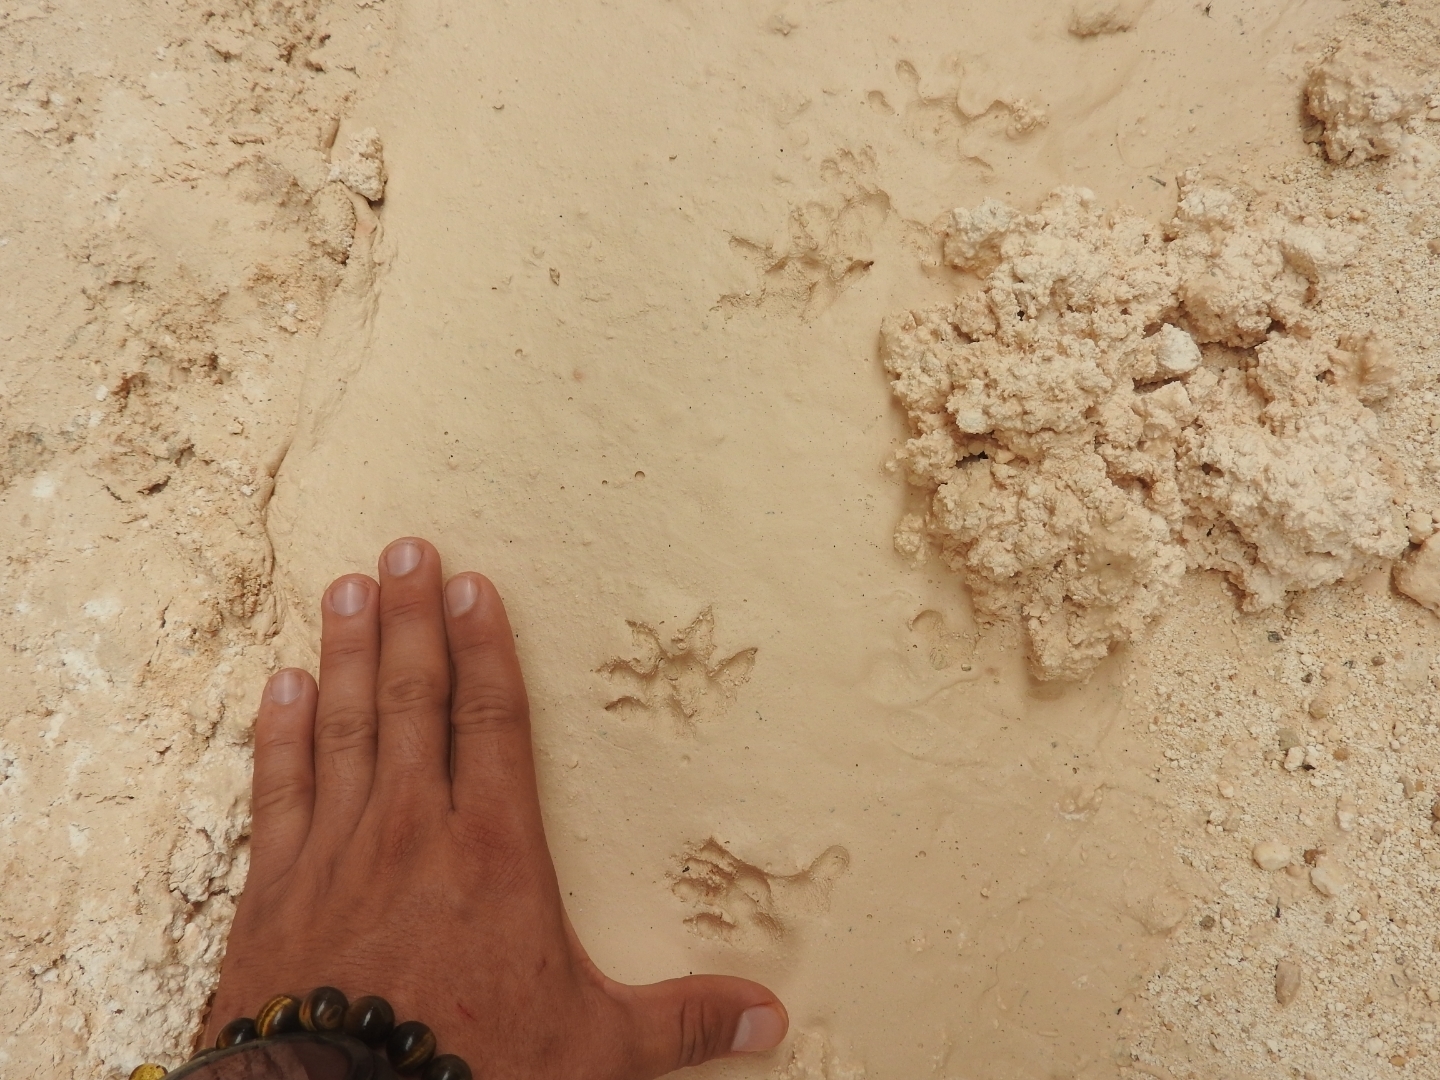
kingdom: Animalia
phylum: Chordata
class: Mammalia
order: Didelphimorphia
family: Didelphidae
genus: Didelphis
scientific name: Didelphis
